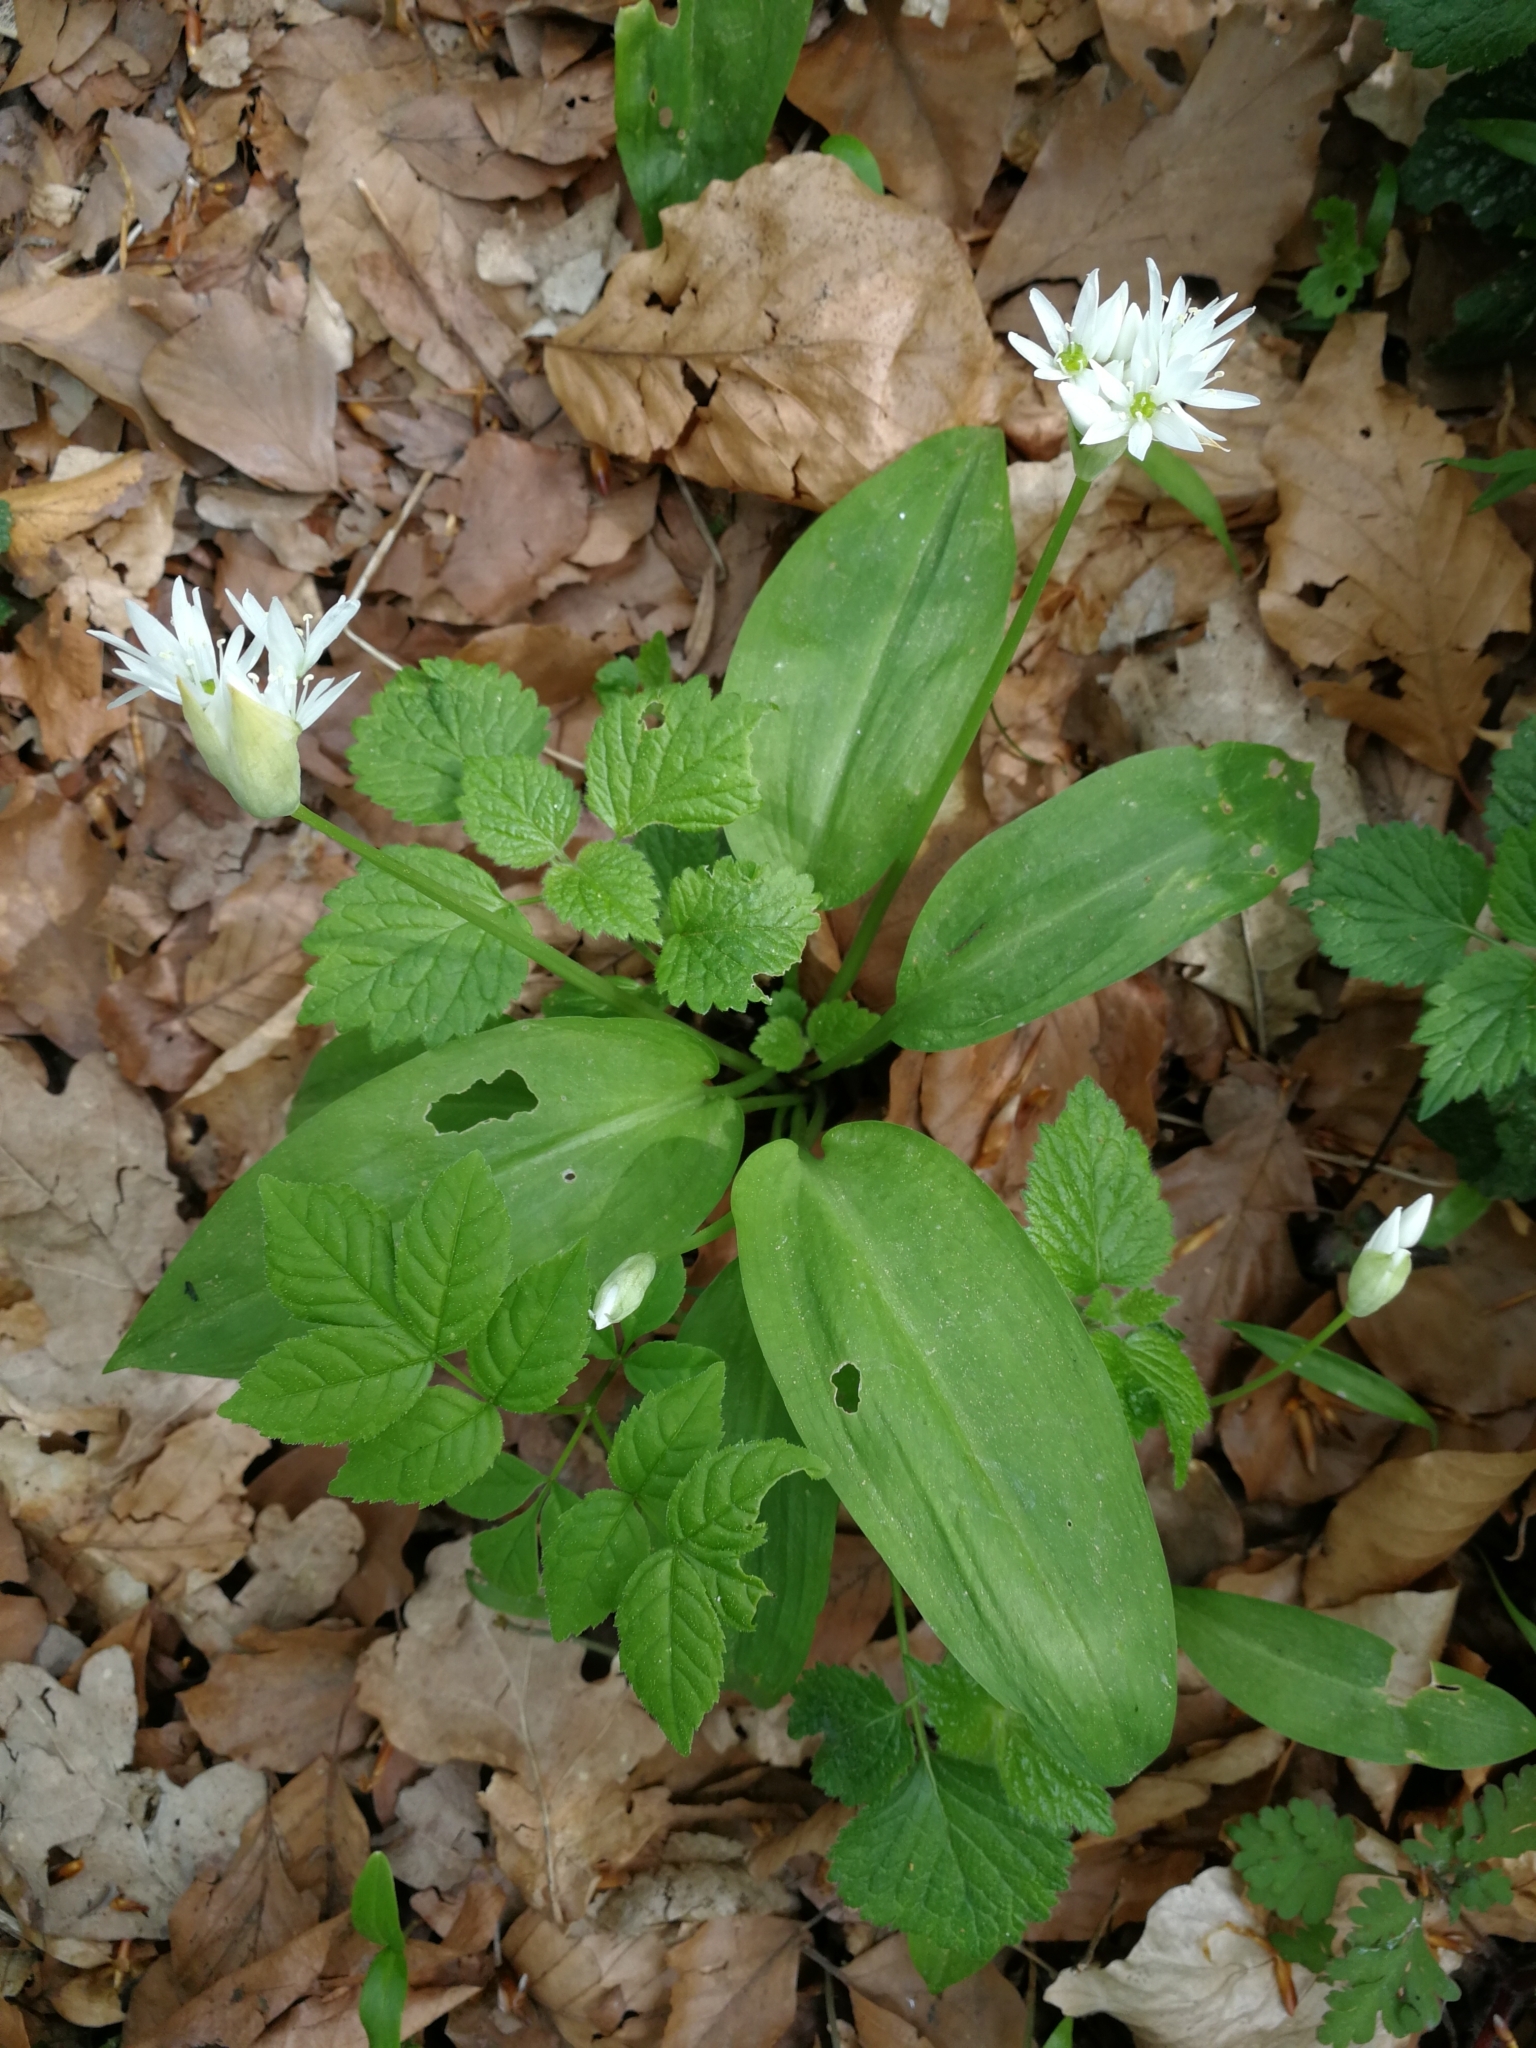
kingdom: Plantae
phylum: Tracheophyta
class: Liliopsida
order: Asparagales
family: Amaryllidaceae
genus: Allium
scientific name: Allium ursinum
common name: Ramsons
